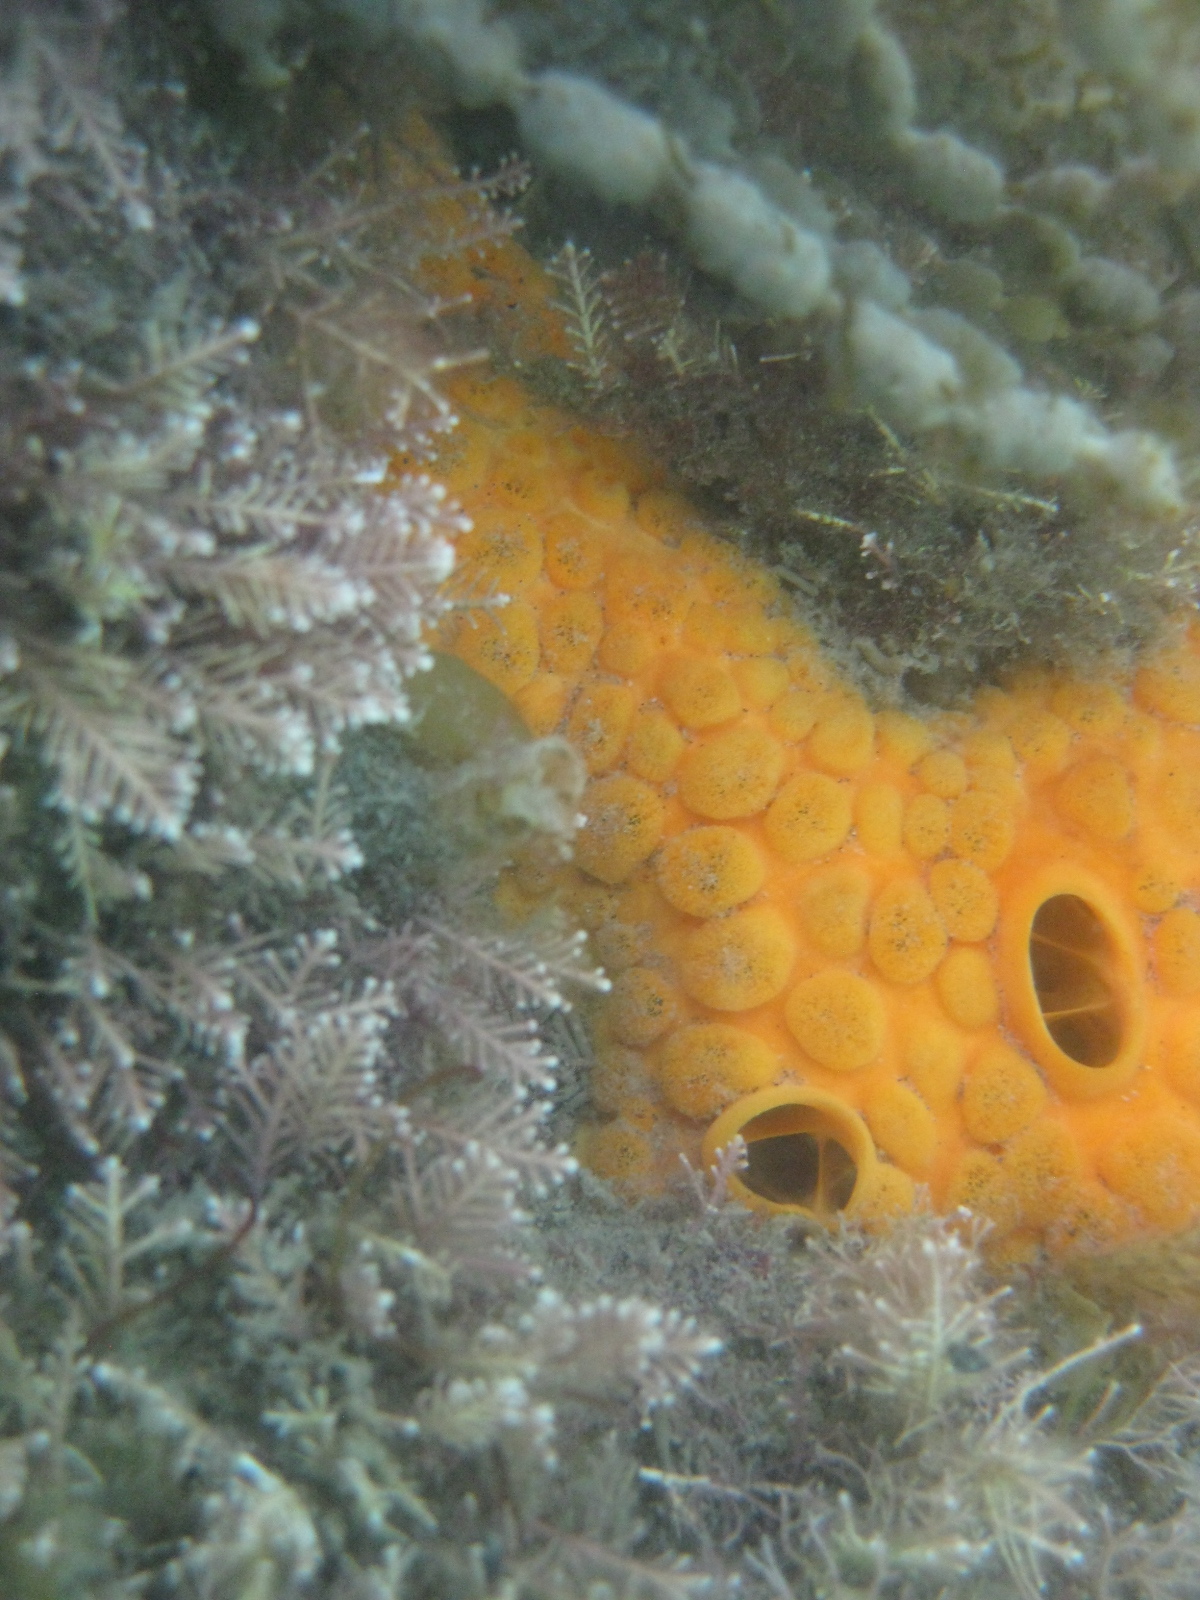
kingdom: Animalia
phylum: Porifera
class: Demospongiae
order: Clionaida
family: Clionaidae
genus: Cliona
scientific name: Cliona celata
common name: Boring sponge
